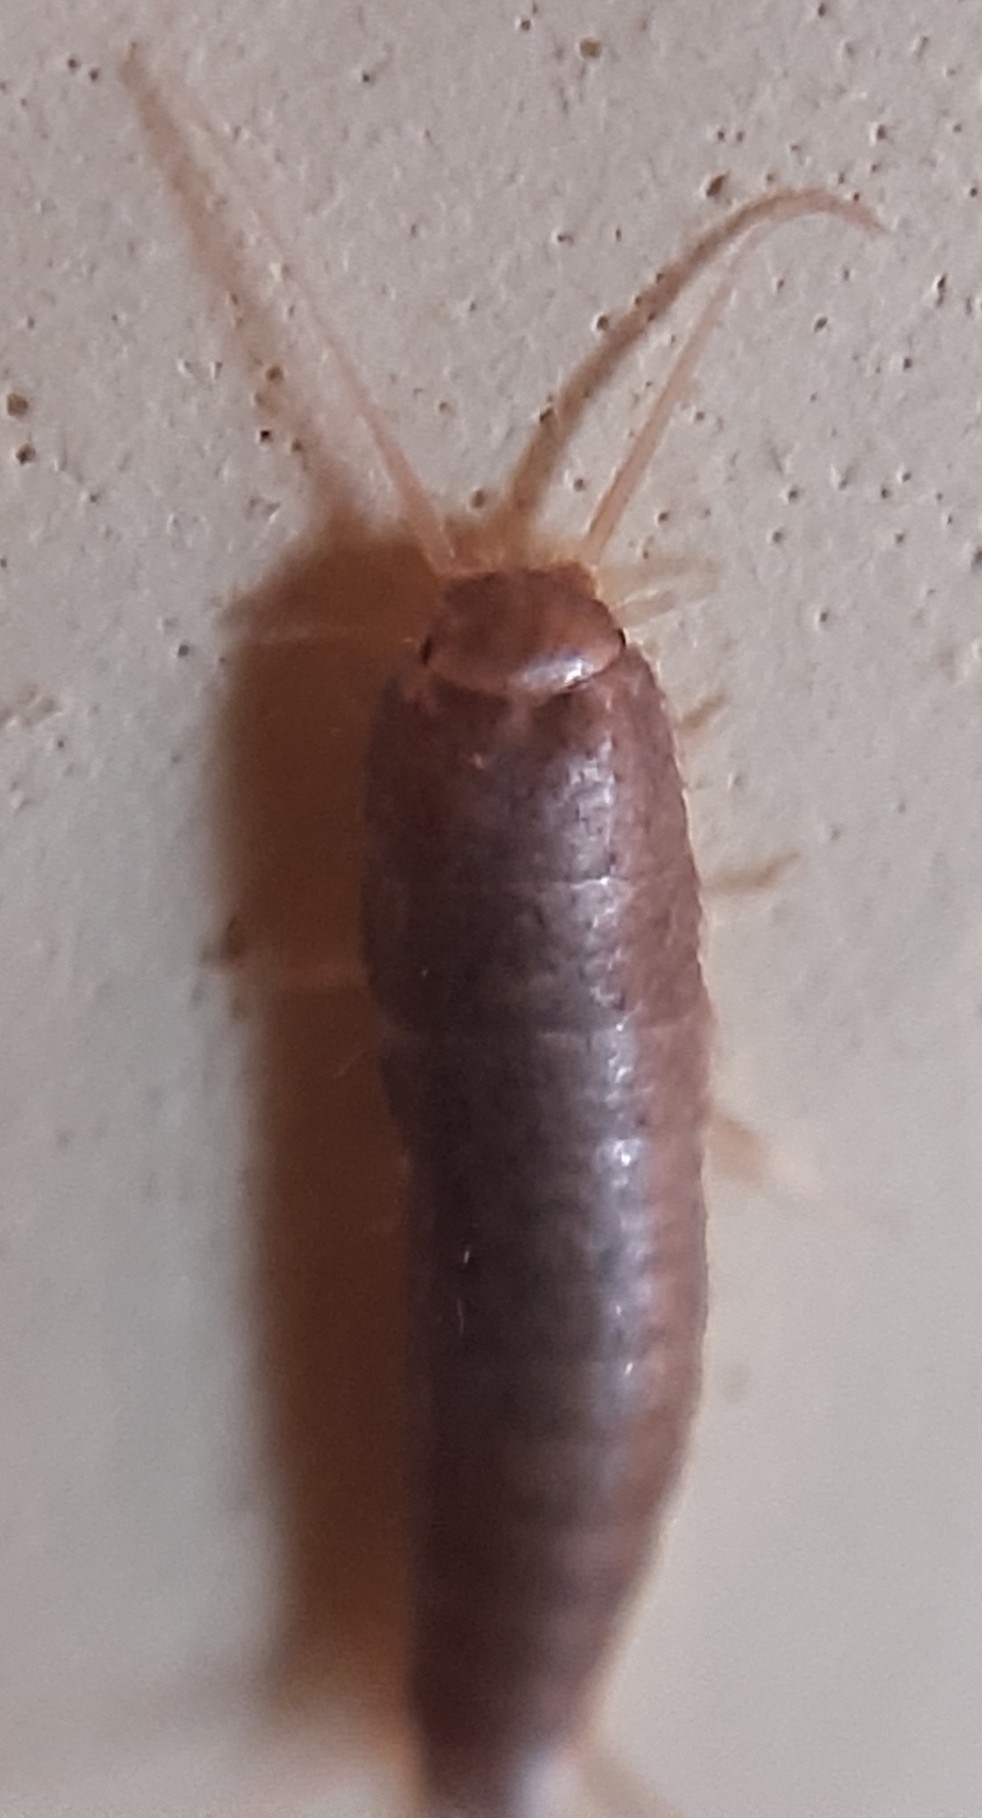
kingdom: Animalia
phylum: Arthropoda
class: Insecta
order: Zygentoma
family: Lepismatidae
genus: Lepisma
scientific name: Lepisma saccharinum
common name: Silverfish
